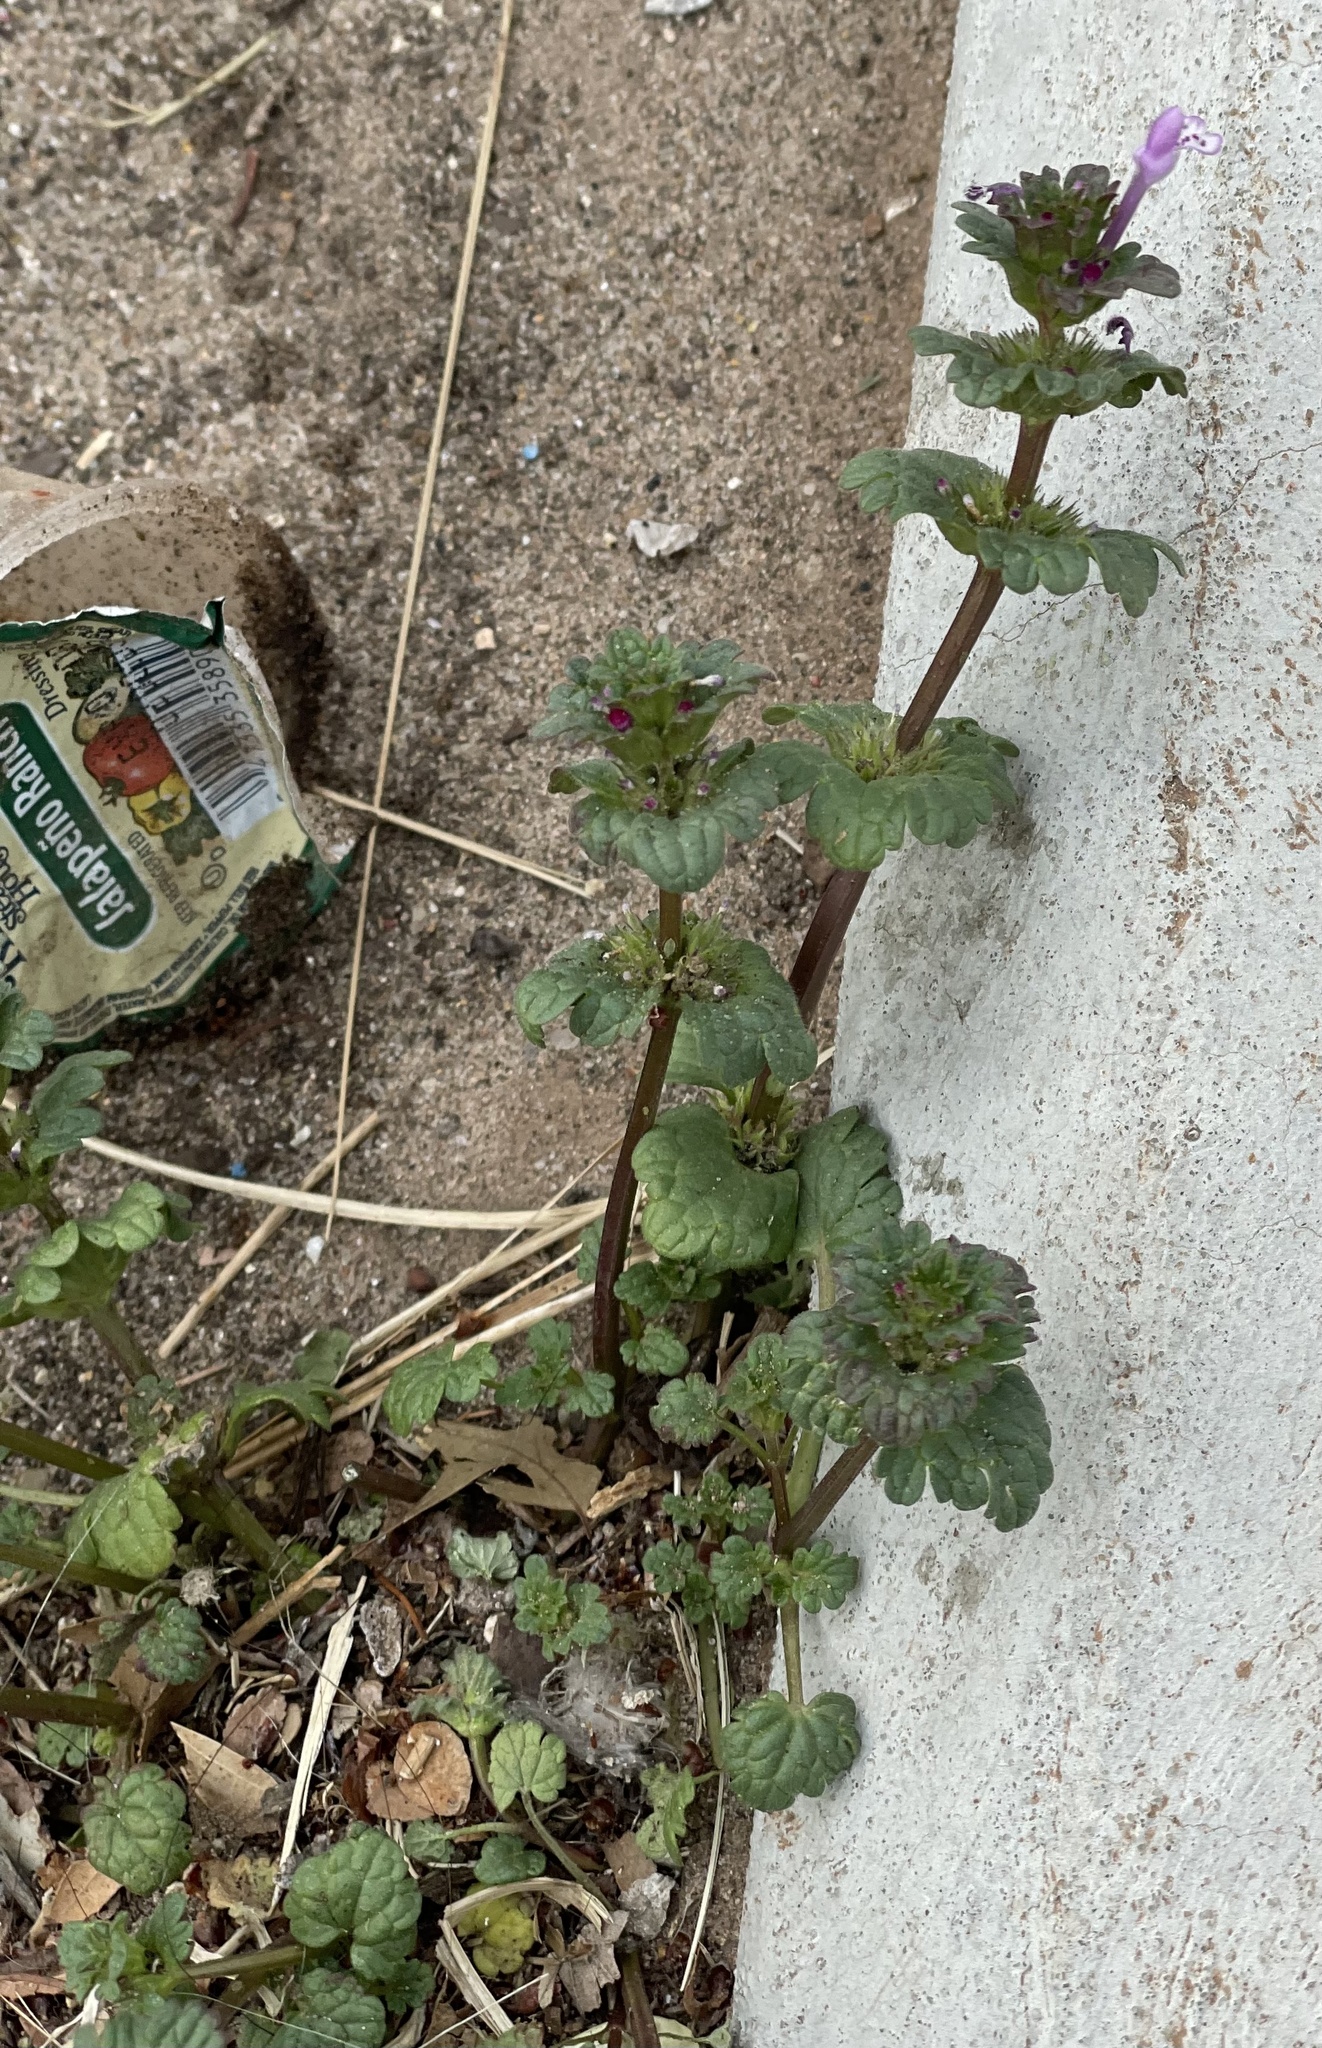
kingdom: Plantae
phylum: Tracheophyta
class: Magnoliopsida
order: Lamiales
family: Lamiaceae
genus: Lamium
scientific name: Lamium amplexicaule
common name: Henbit dead-nettle
